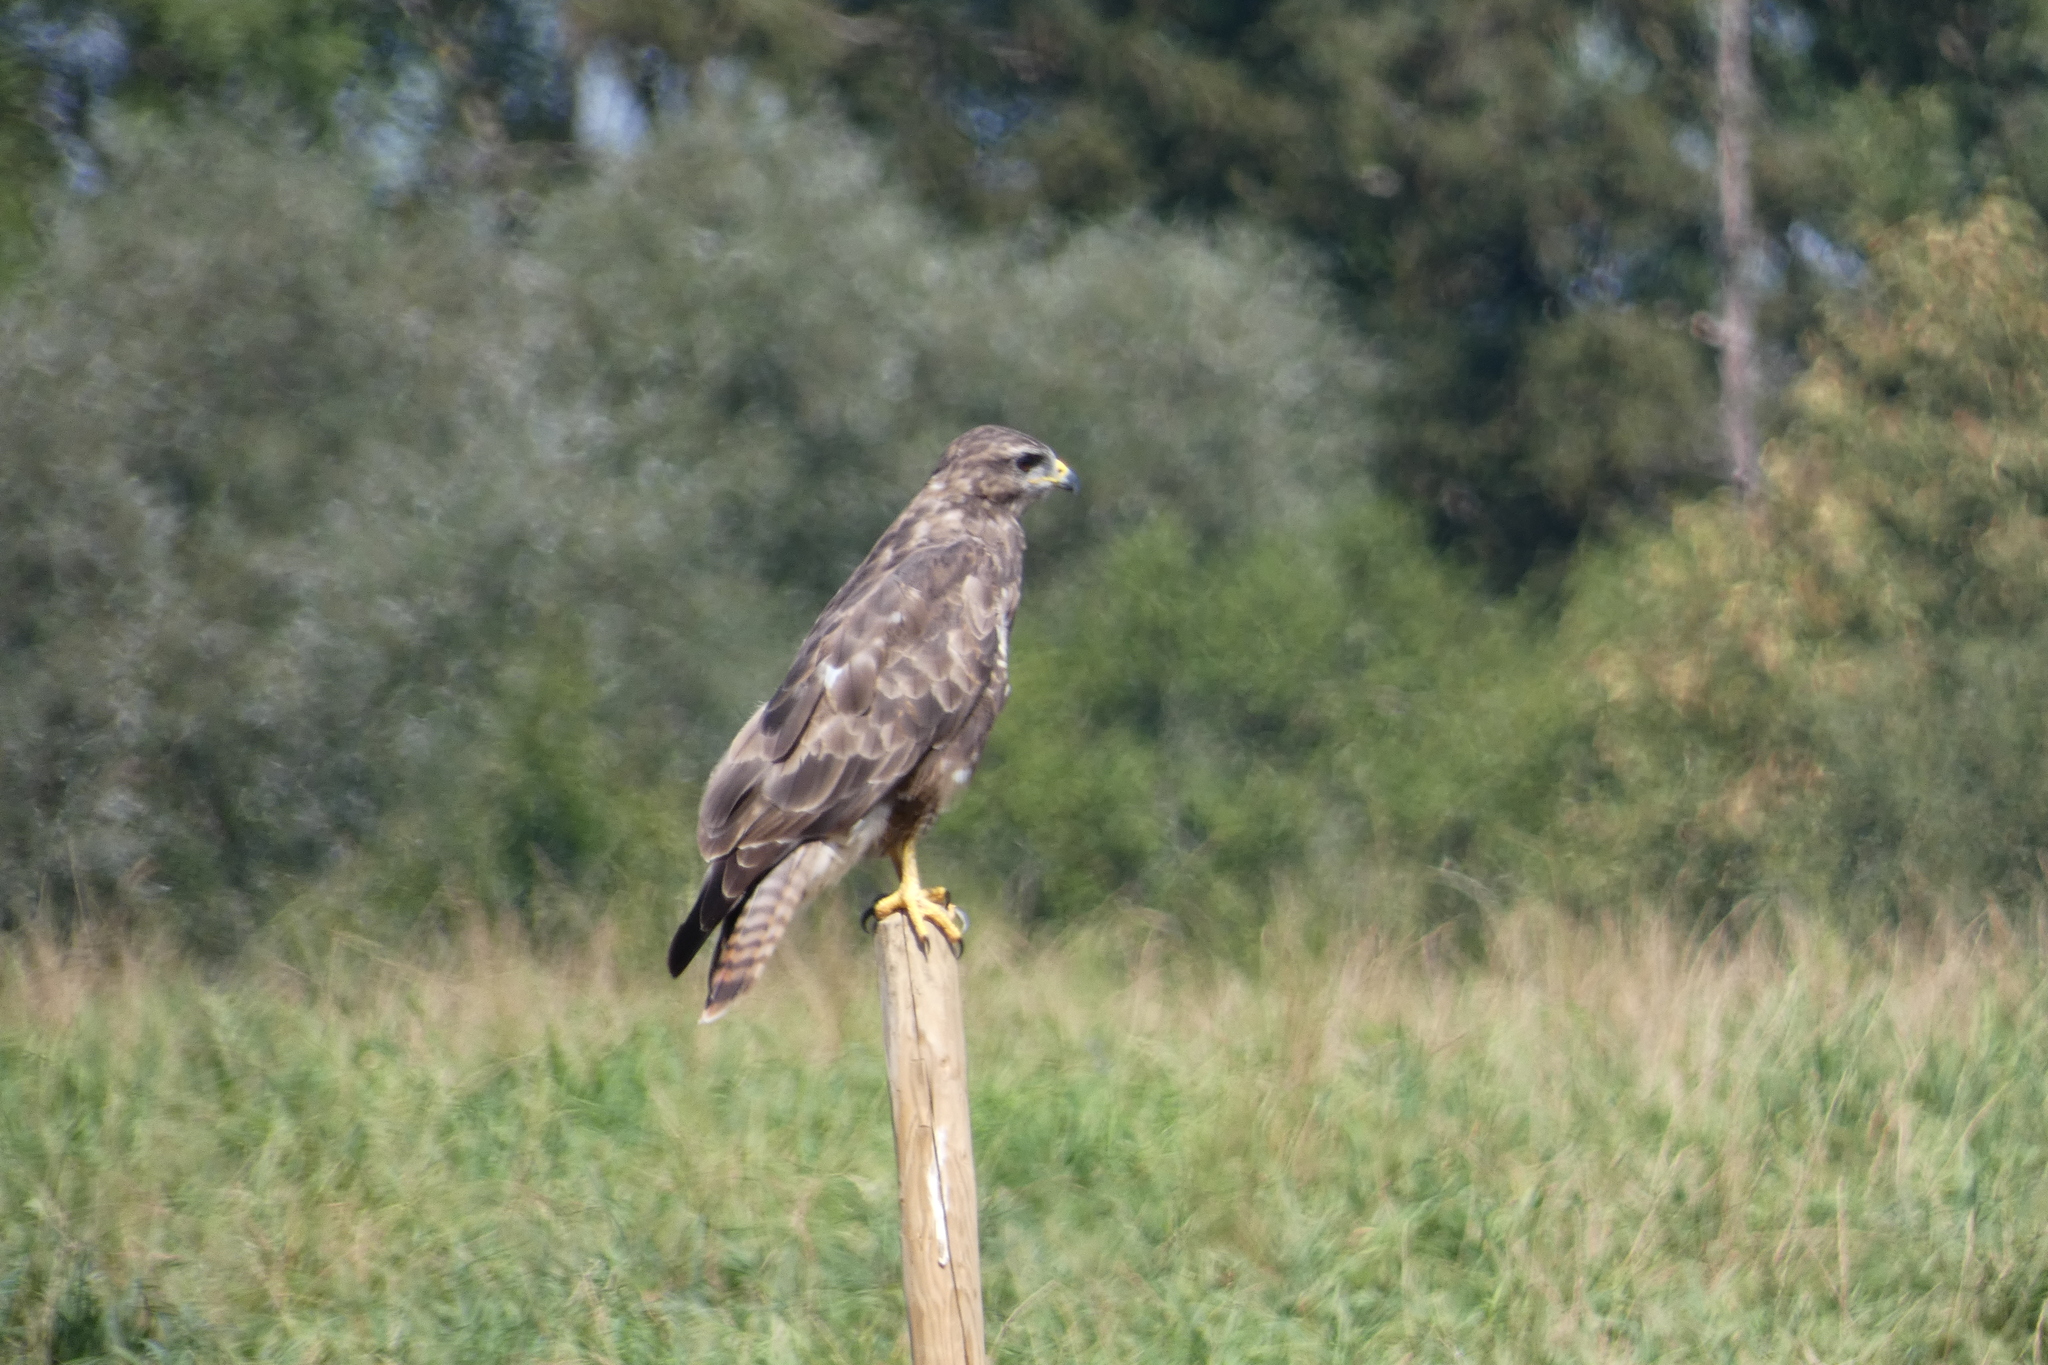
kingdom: Animalia
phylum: Chordata
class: Aves
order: Accipitriformes
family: Accipitridae
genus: Buteo
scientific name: Buteo buteo
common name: Common buzzard
